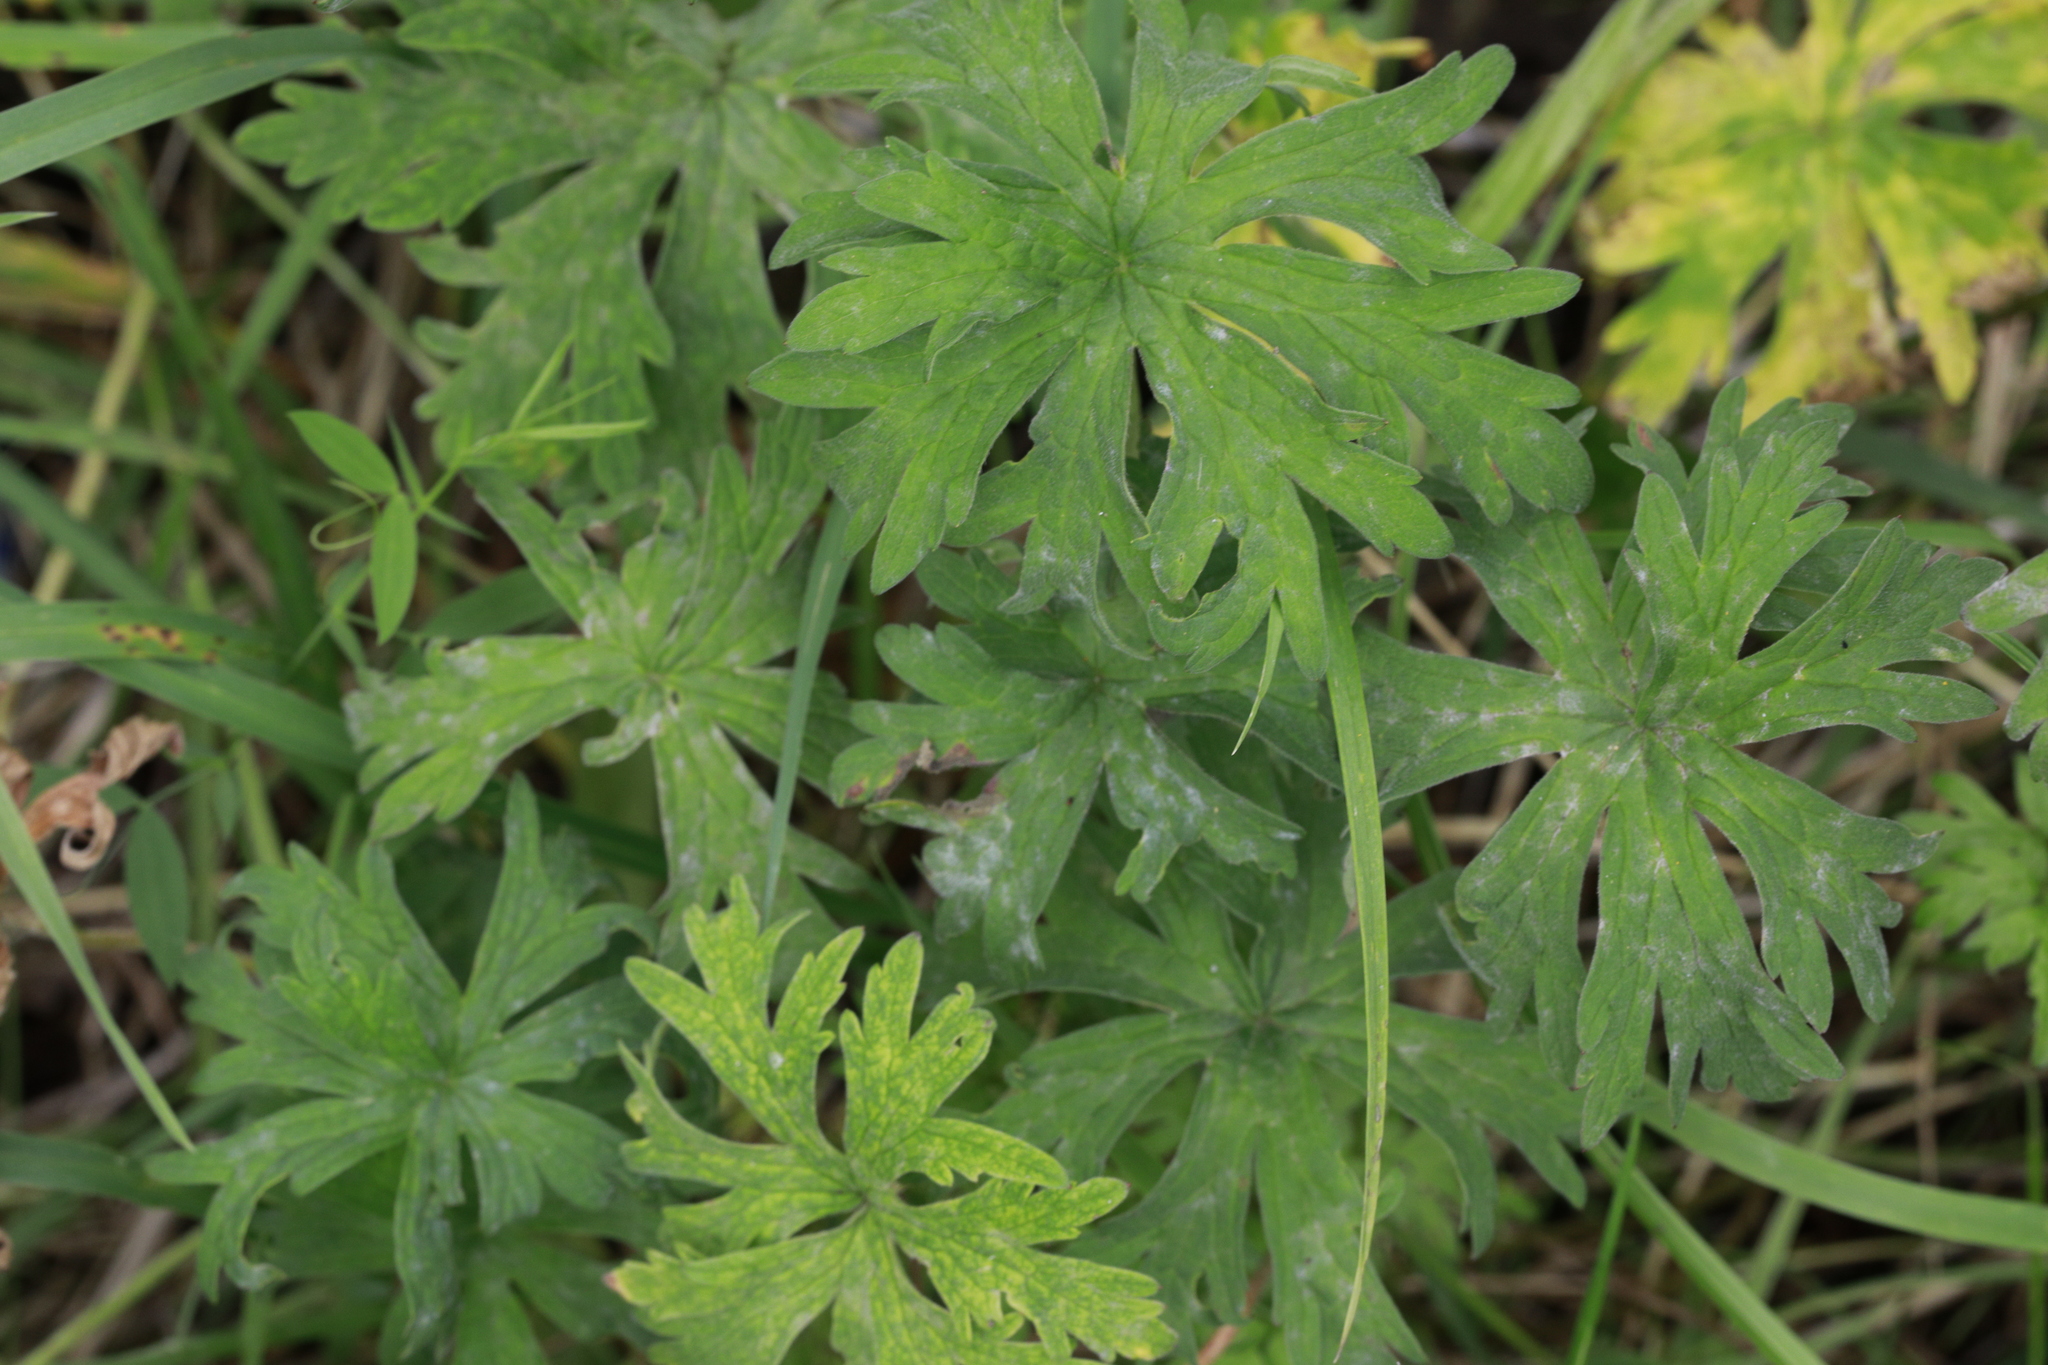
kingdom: Plantae
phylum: Tracheophyta
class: Magnoliopsida
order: Geraniales
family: Geraniaceae
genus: Geranium
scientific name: Geranium pratense
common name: Meadow crane's-bill
